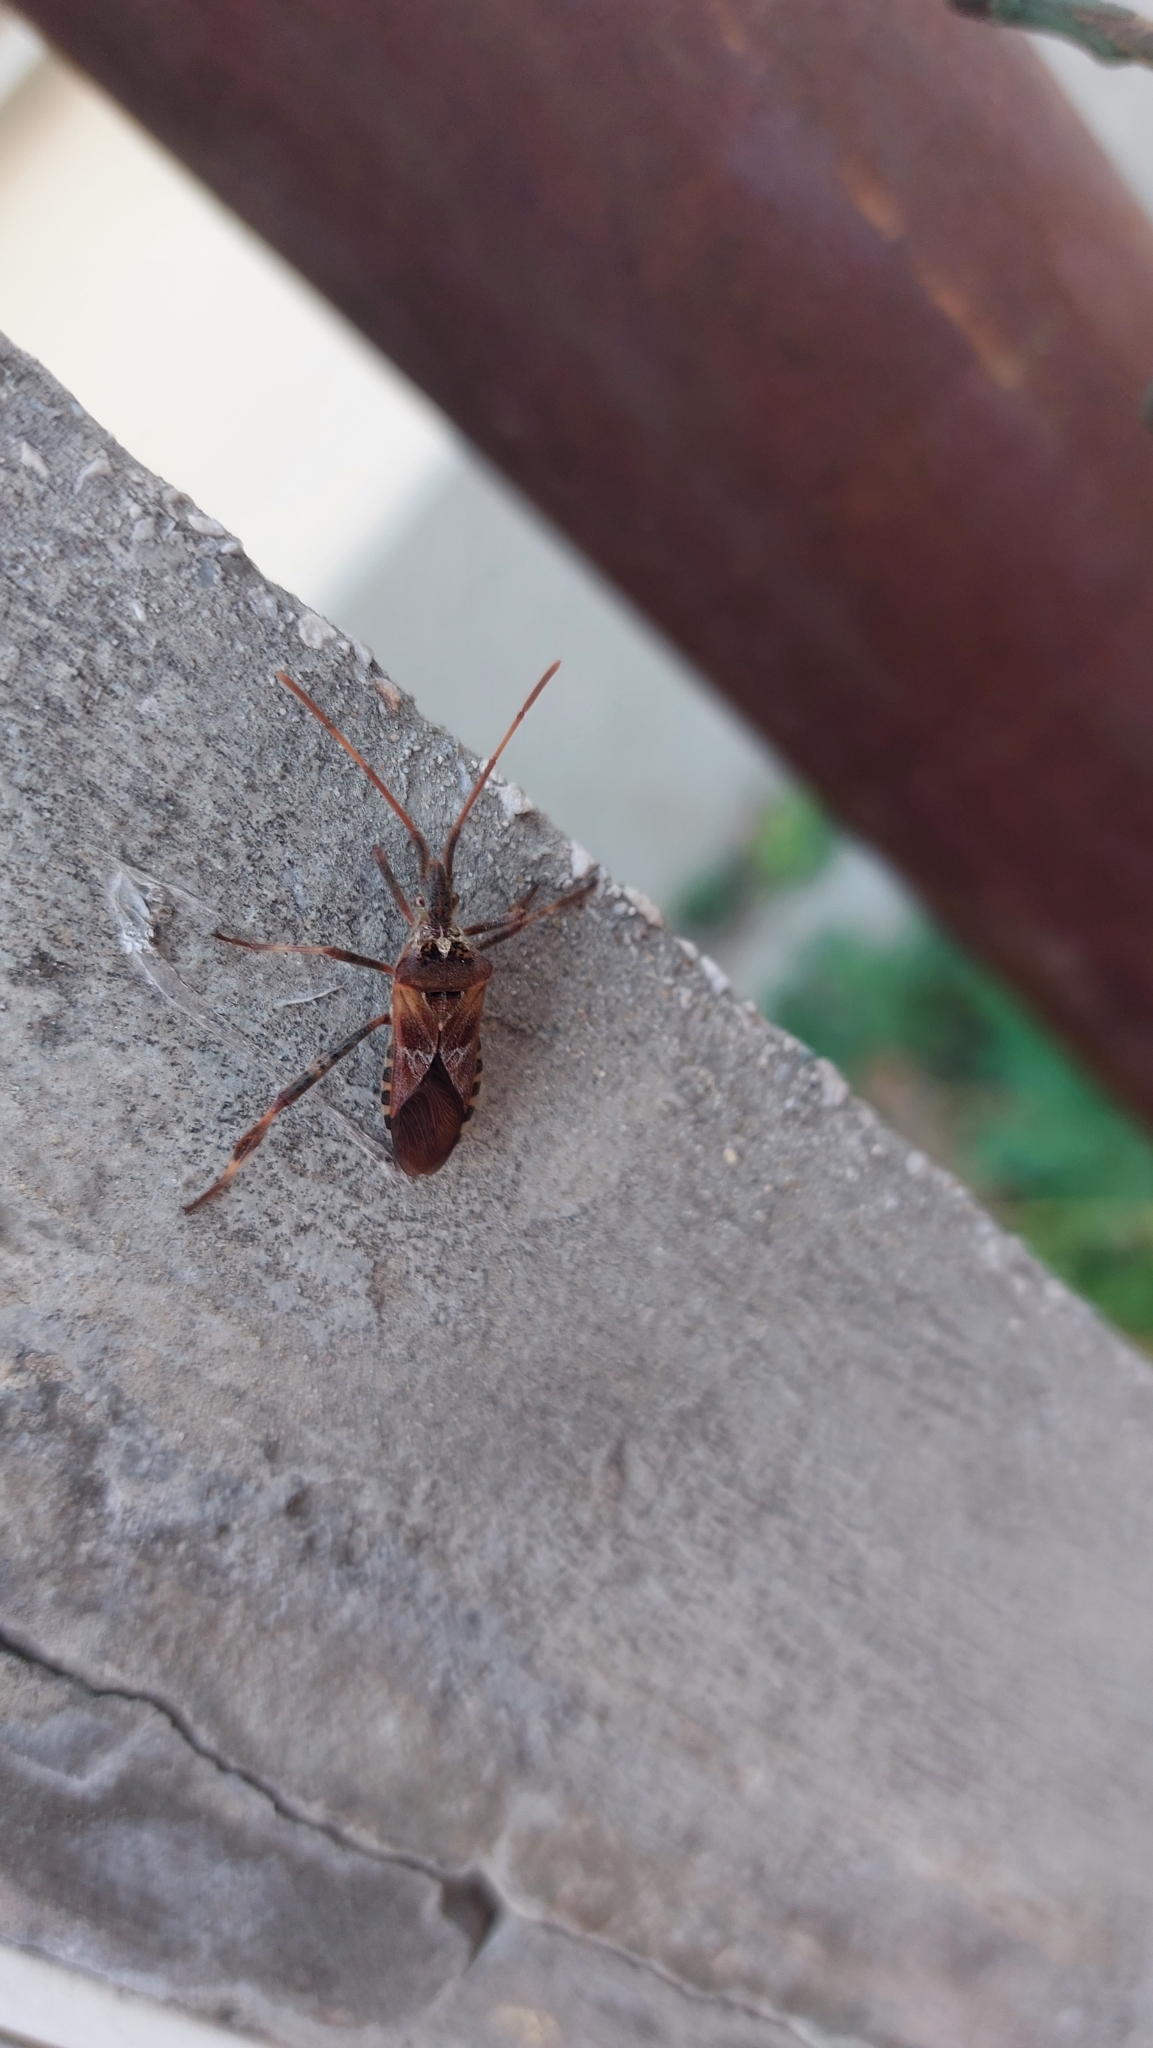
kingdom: Animalia
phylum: Arthropoda
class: Insecta
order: Hemiptera
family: Coreidae
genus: Leptoglossus
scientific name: Leptoglossus occidentalis
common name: Western conifer-seed bug
